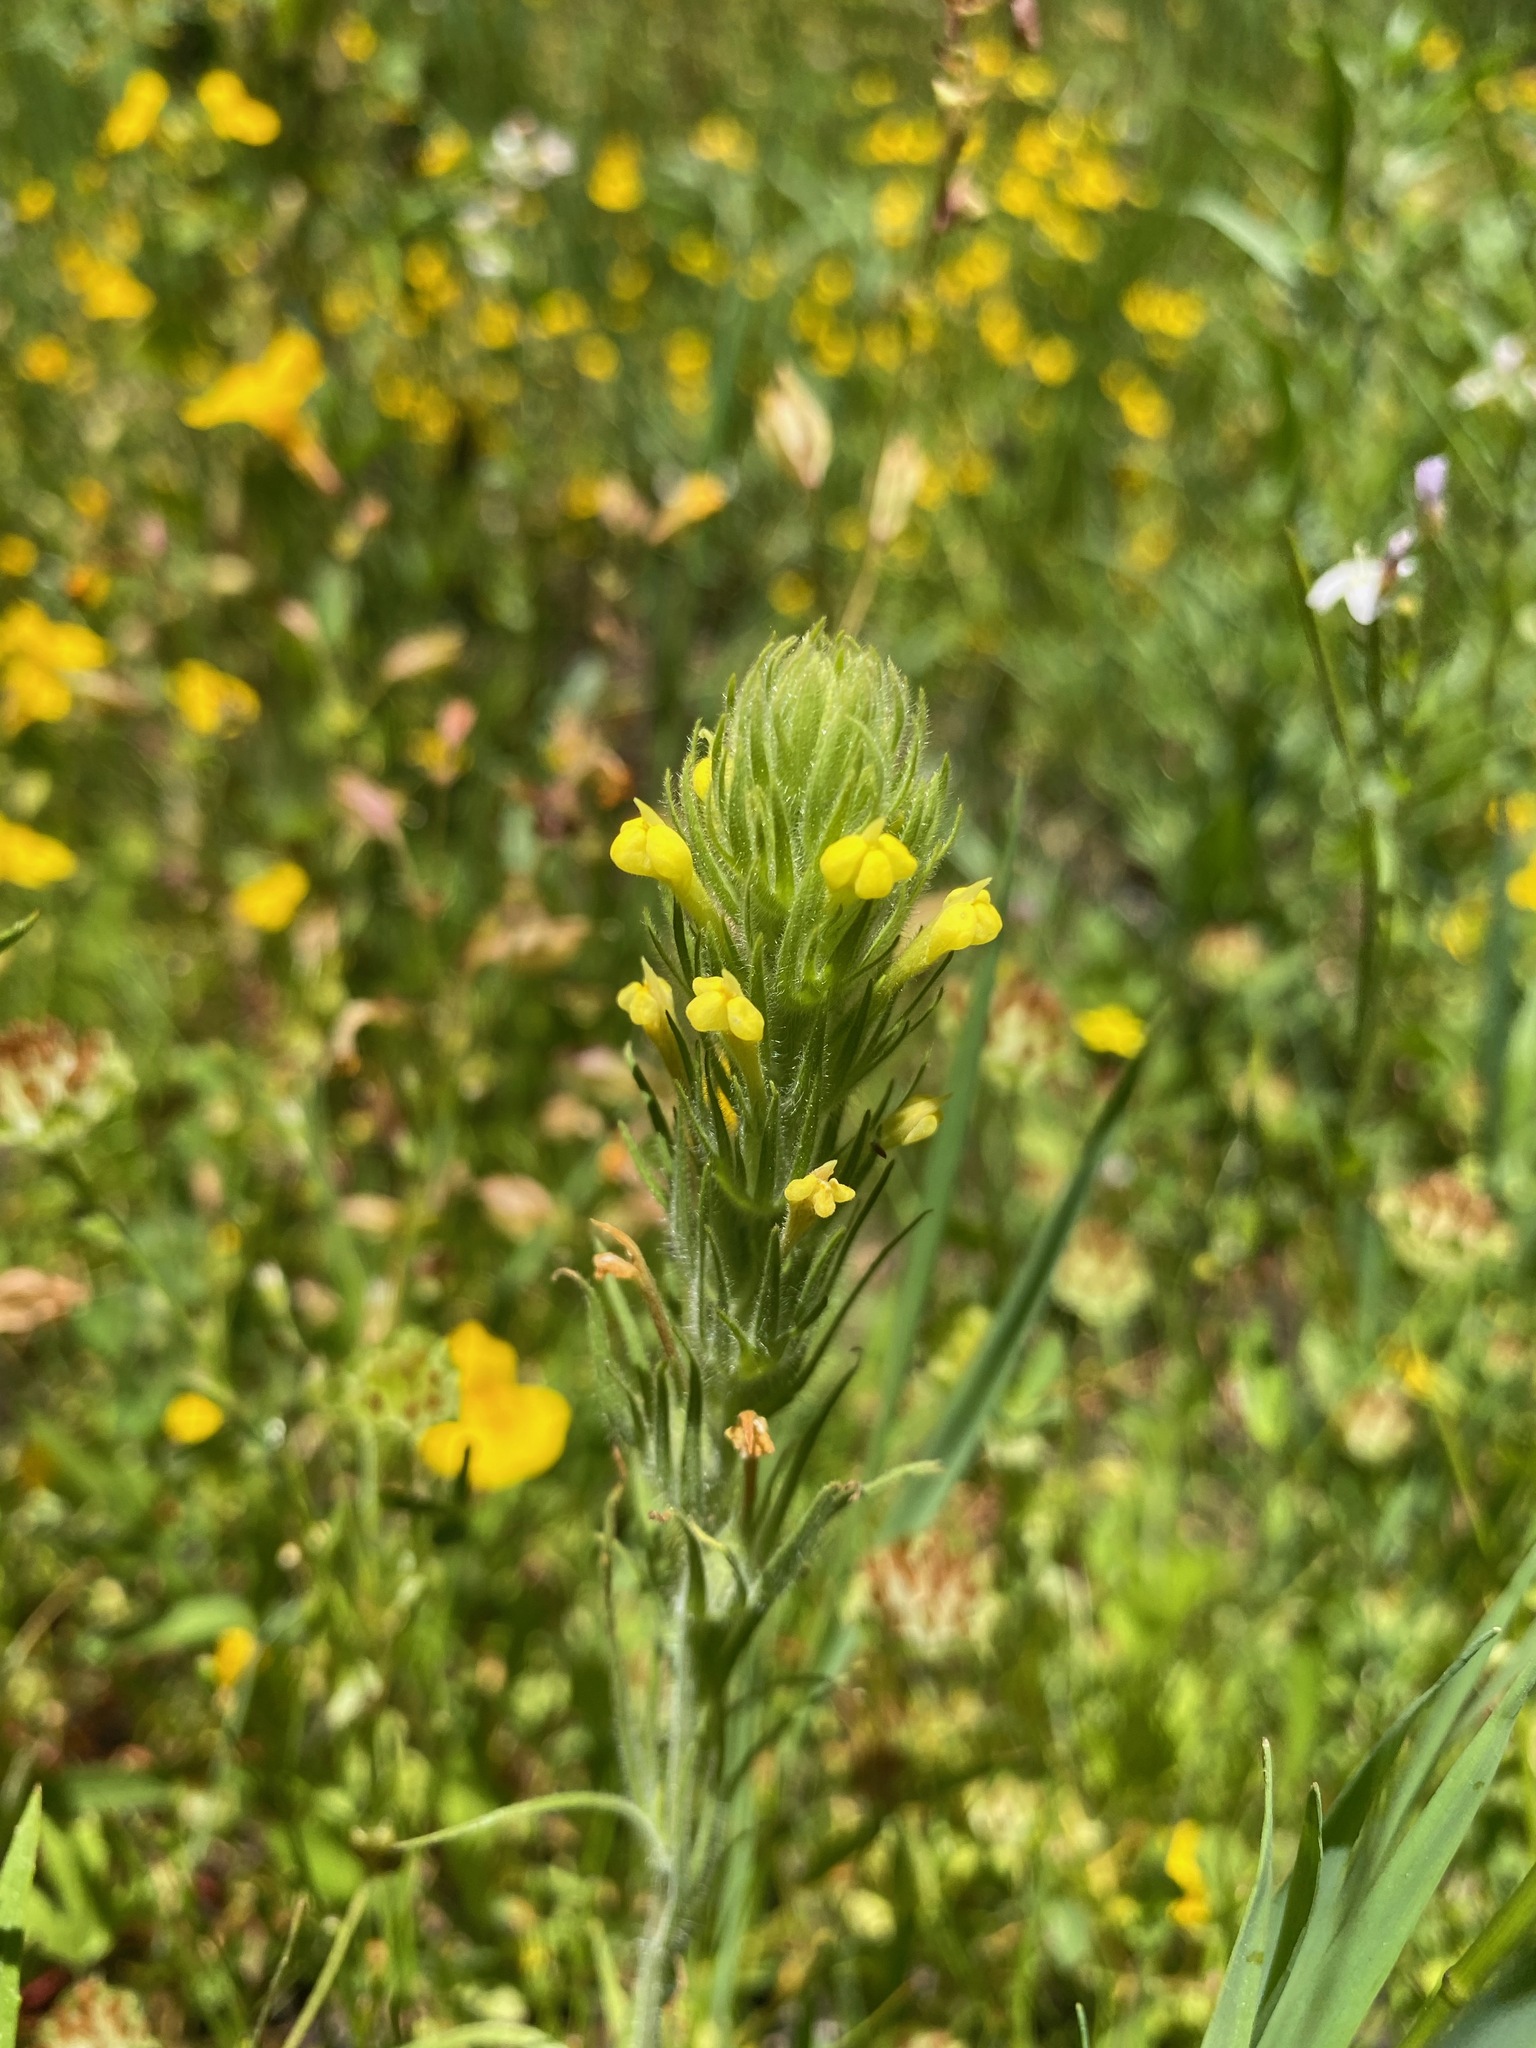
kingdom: Plantae
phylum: Tracheophyta
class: Magnoliopsida
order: Lamiales
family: Orobanchaceae
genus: Castilleja
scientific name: Castilleja tenuis
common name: Hairy indian paintbrush
